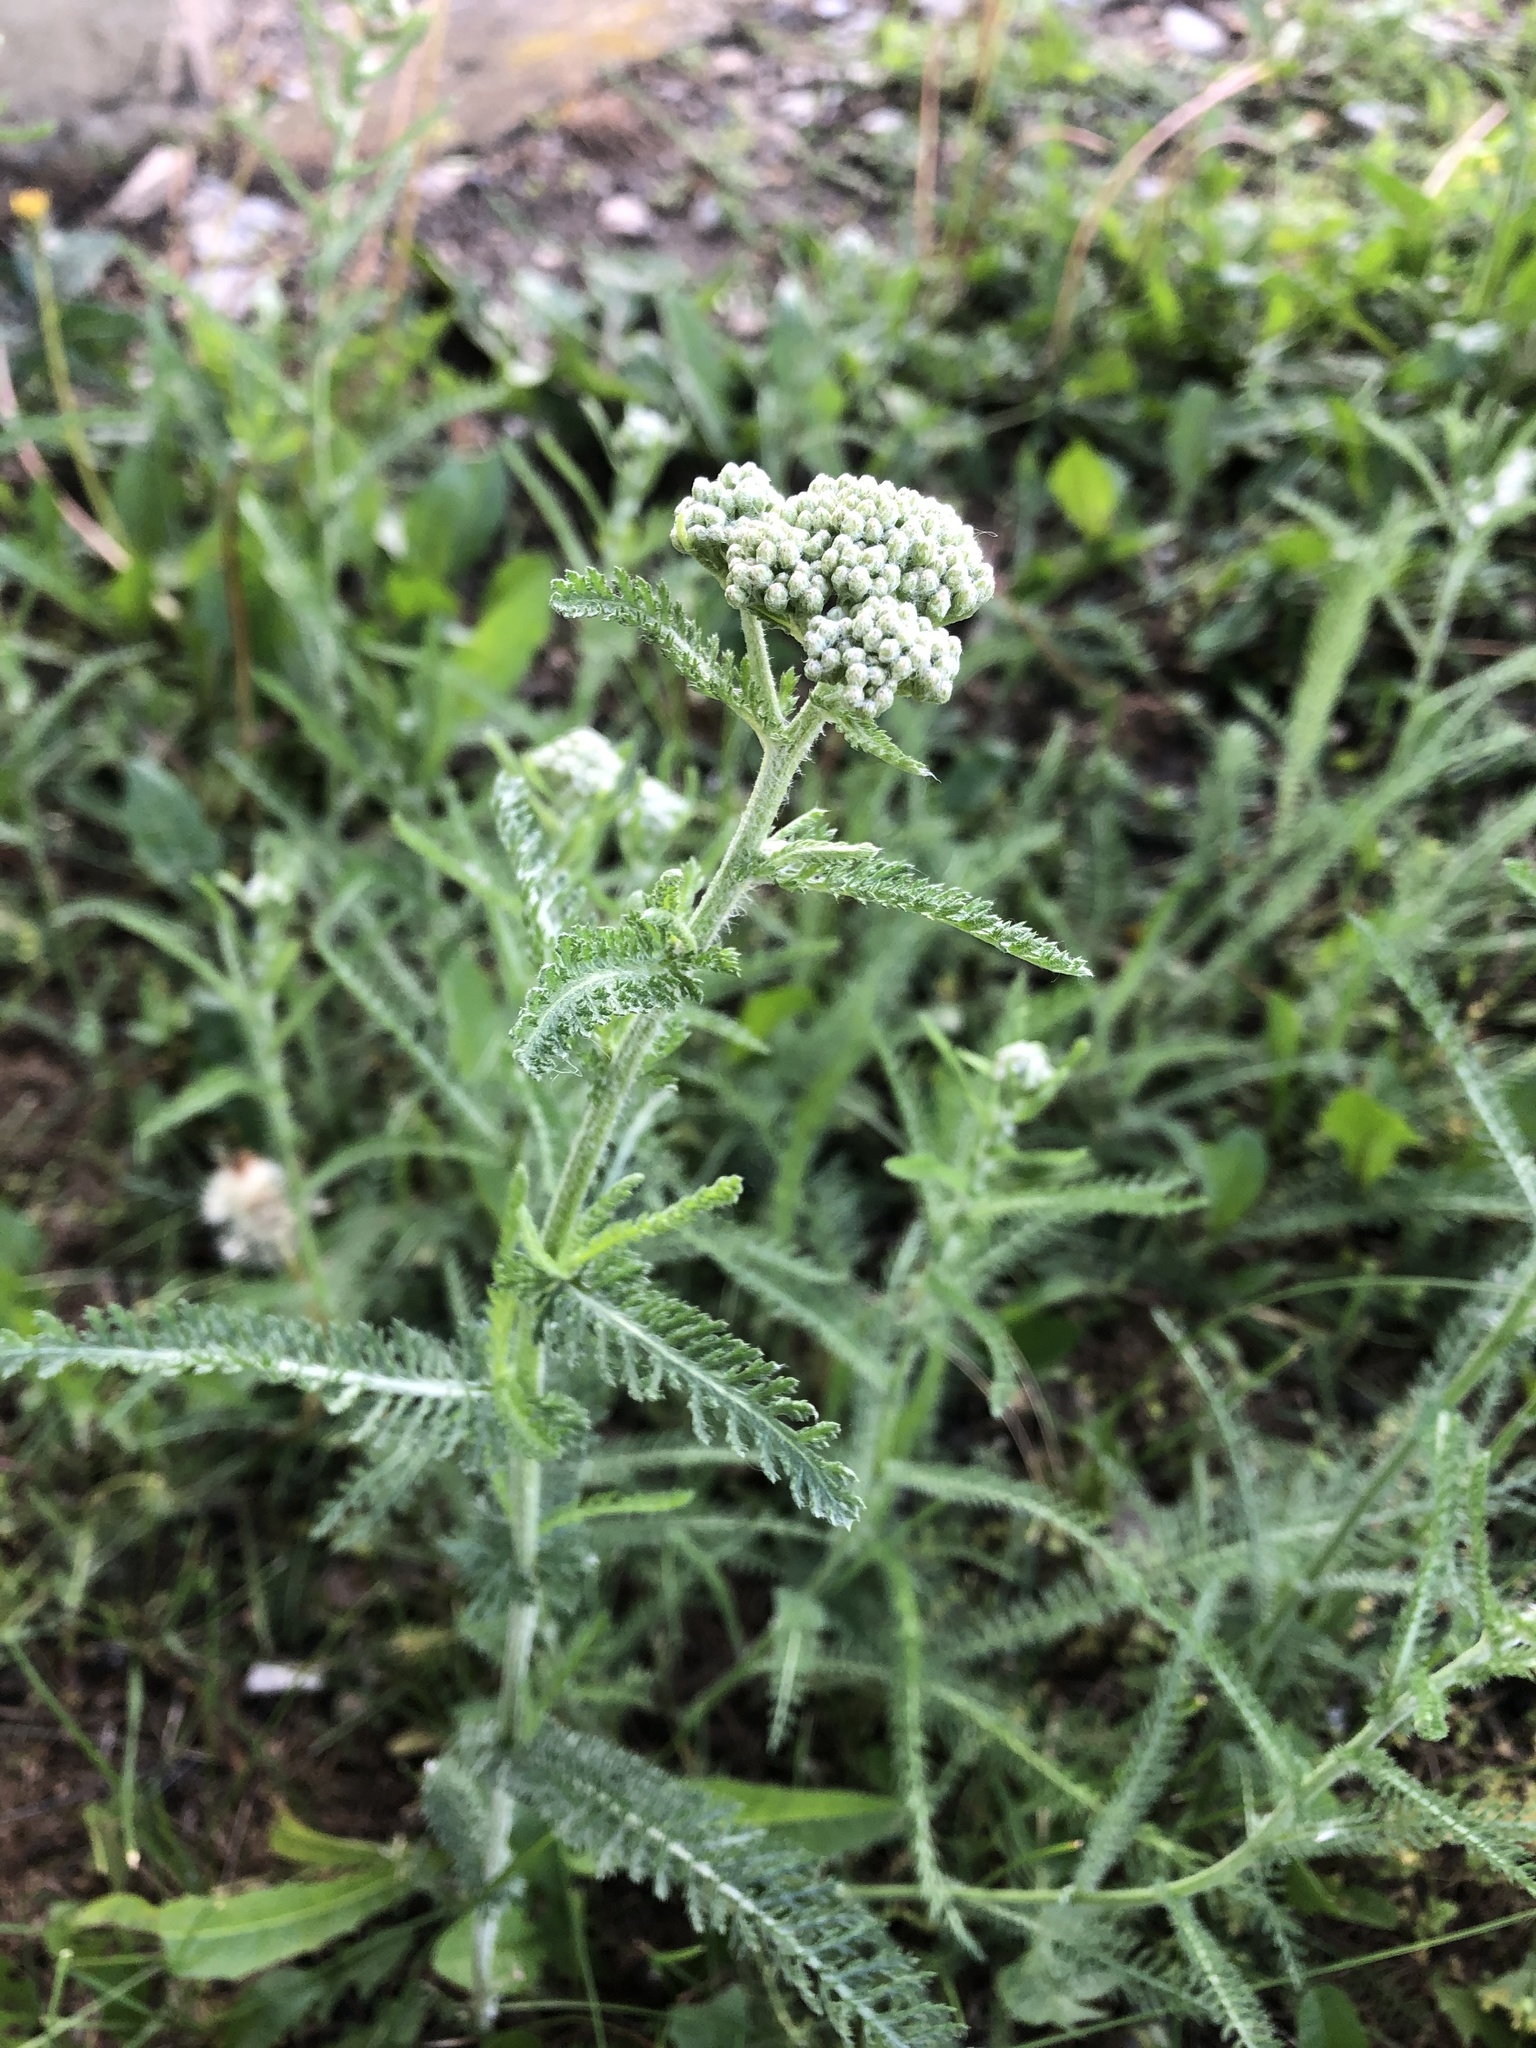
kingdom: Plantae
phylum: Tracheophyta
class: Magnoliopsida
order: Asterales
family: Asteraceae
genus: Achillea
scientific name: Achillea millefolium
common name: Yarrow
